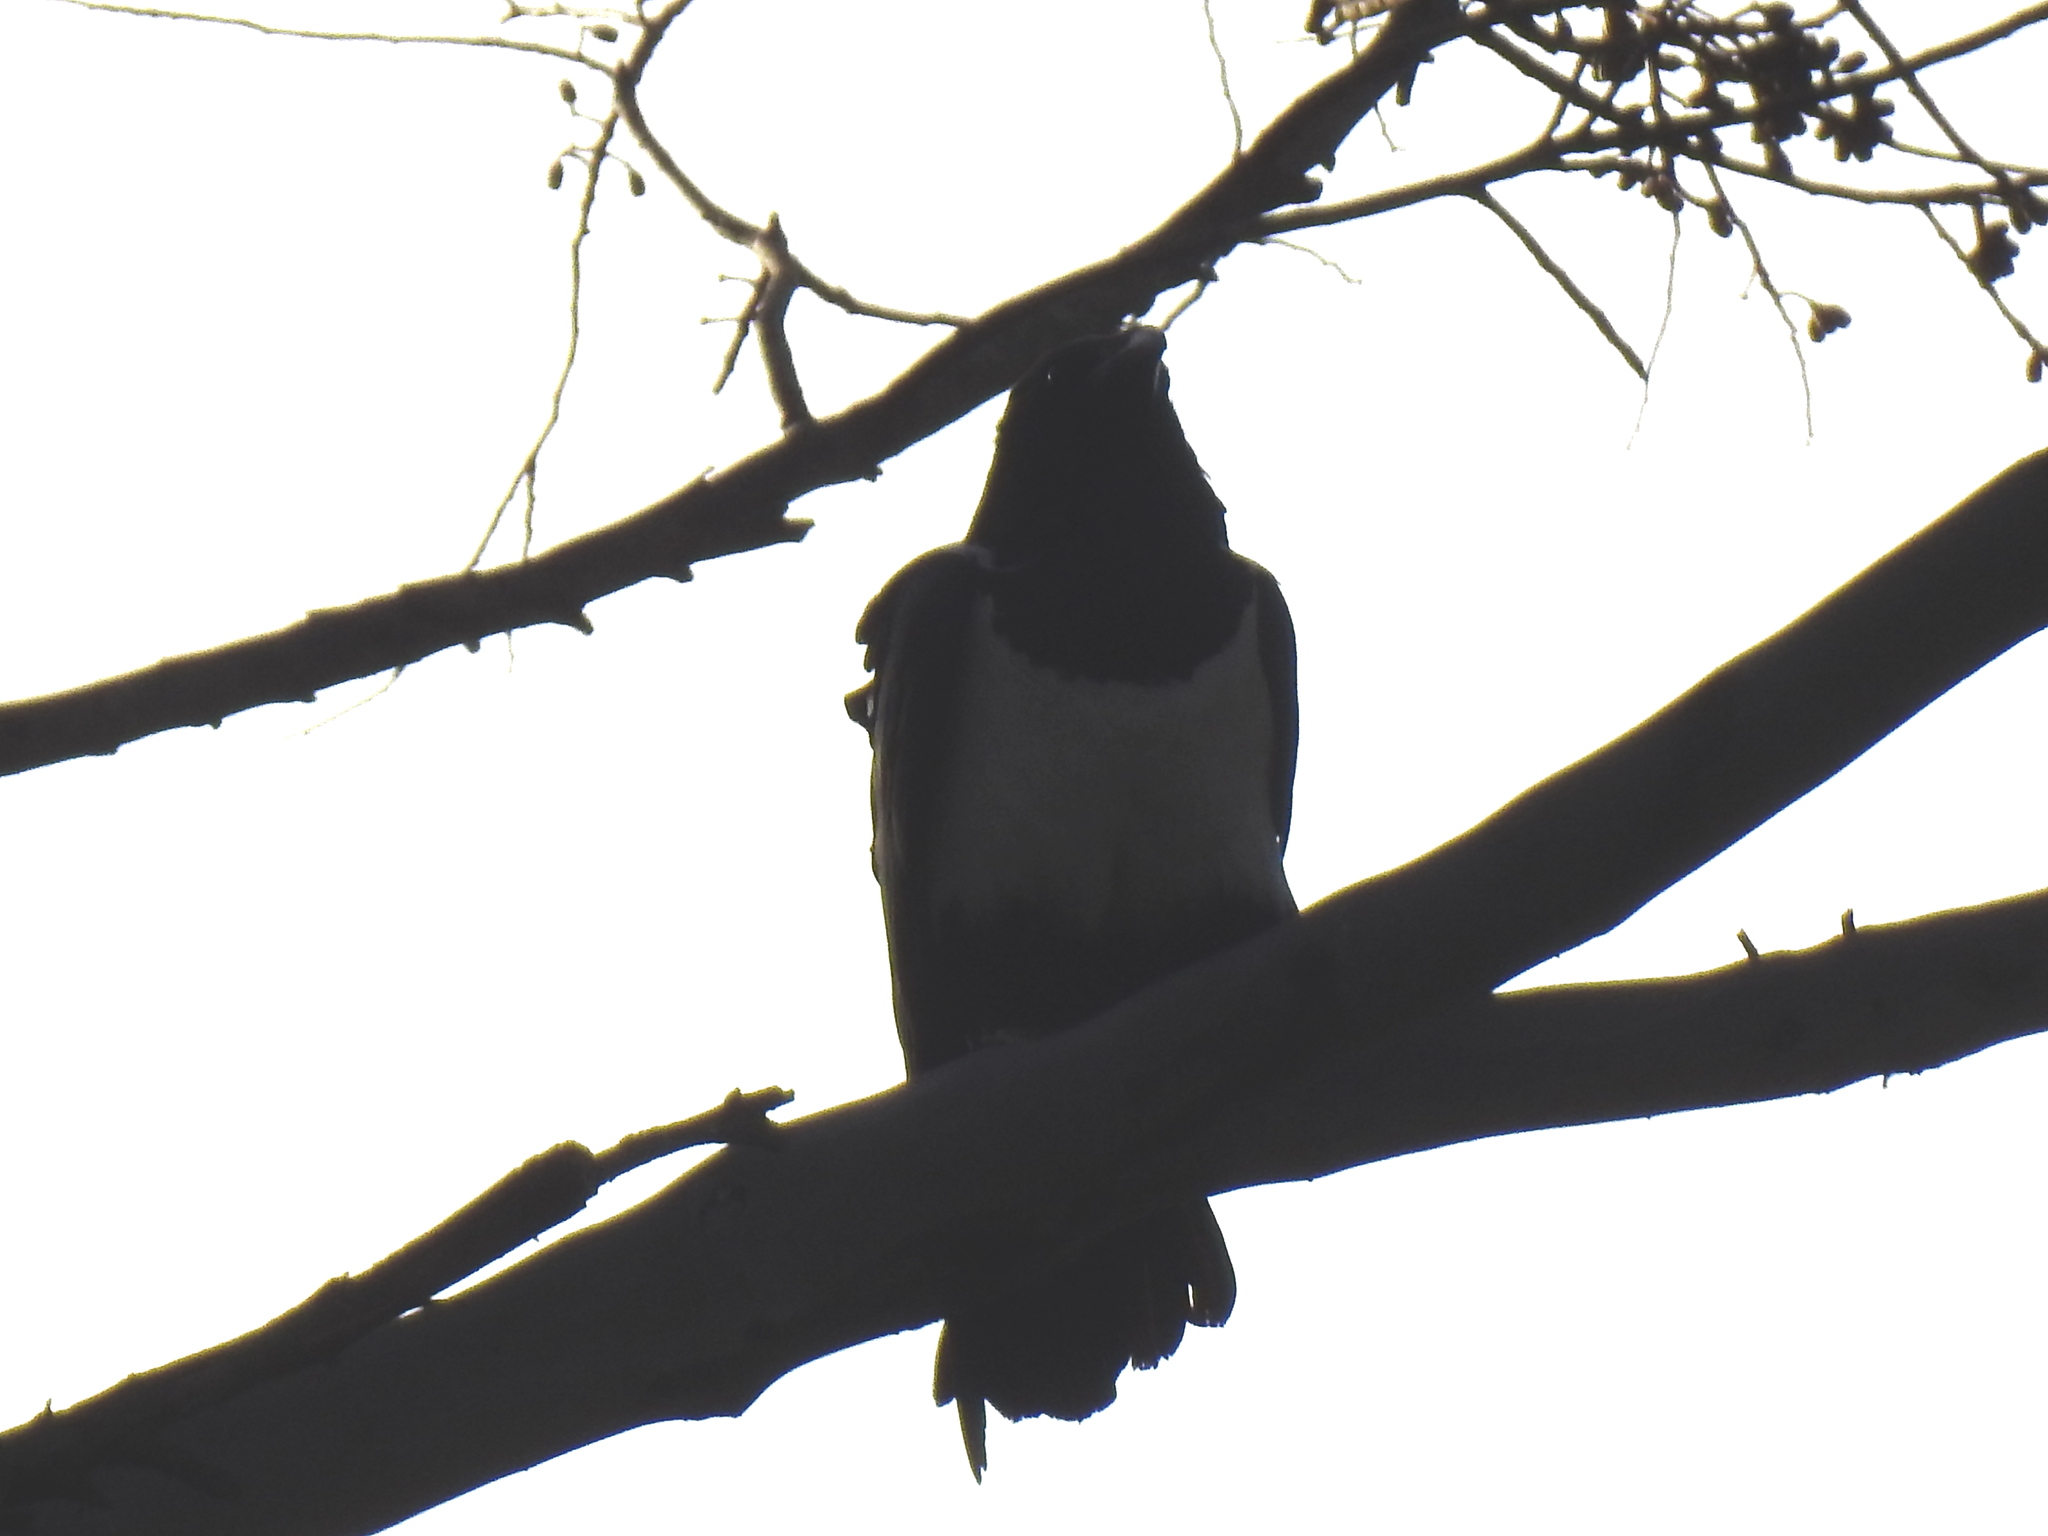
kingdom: Animalia
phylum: Chordata
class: Aves
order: Passeriformes
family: Corvidae
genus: Corvus
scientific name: Corvus albus
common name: Pied crow
